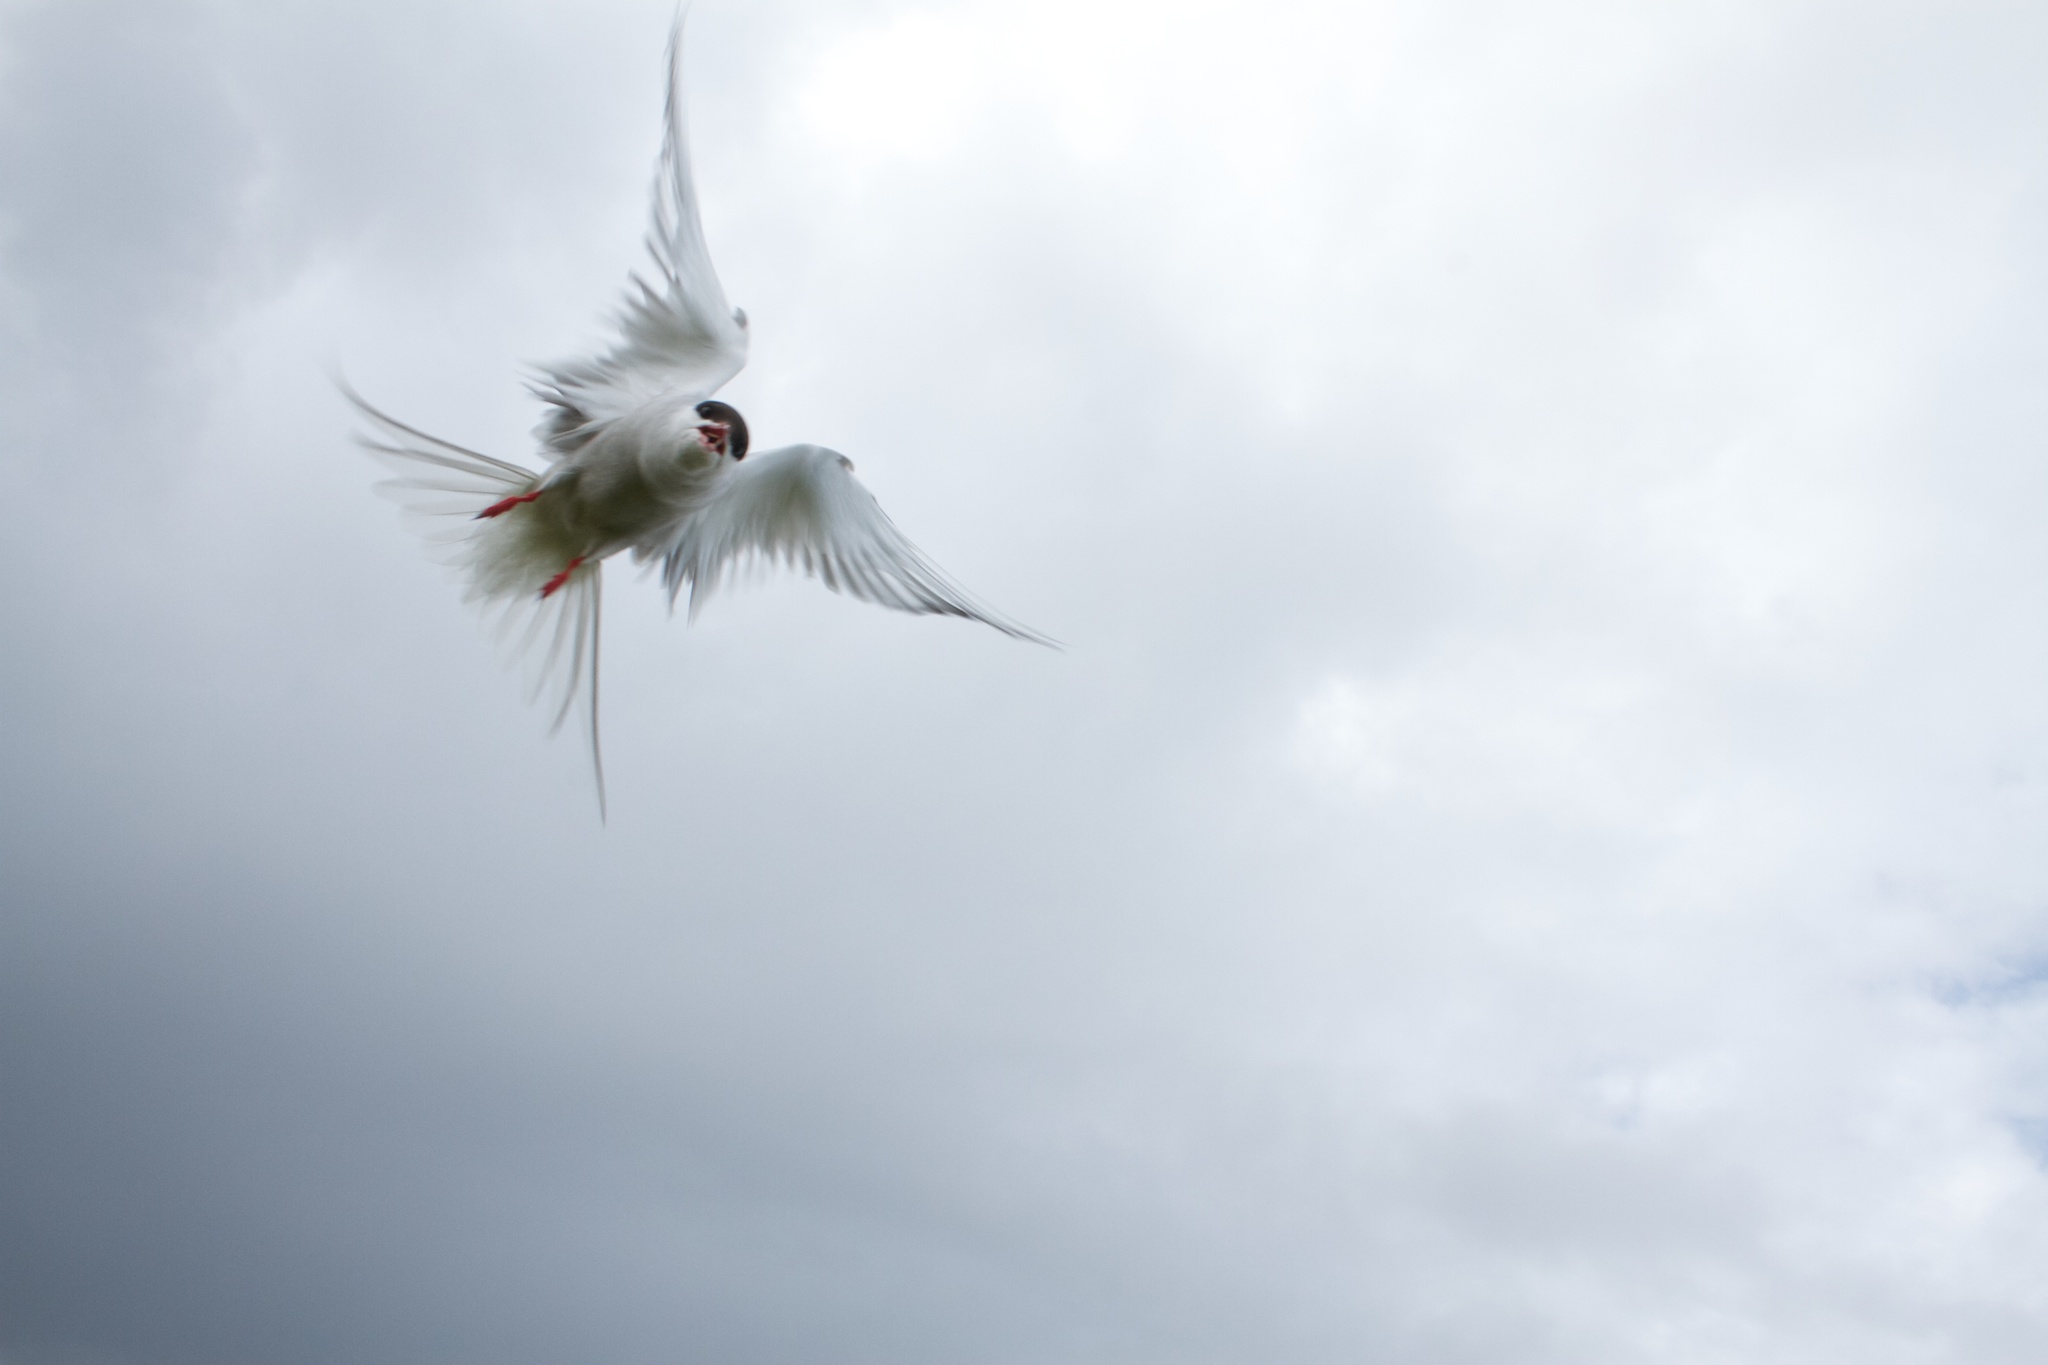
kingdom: Animalia
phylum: Chordata
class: Aves
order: Charadriiformes
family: Laridae
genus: Sterna
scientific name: Sterna paradisaea
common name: Arctic tern
